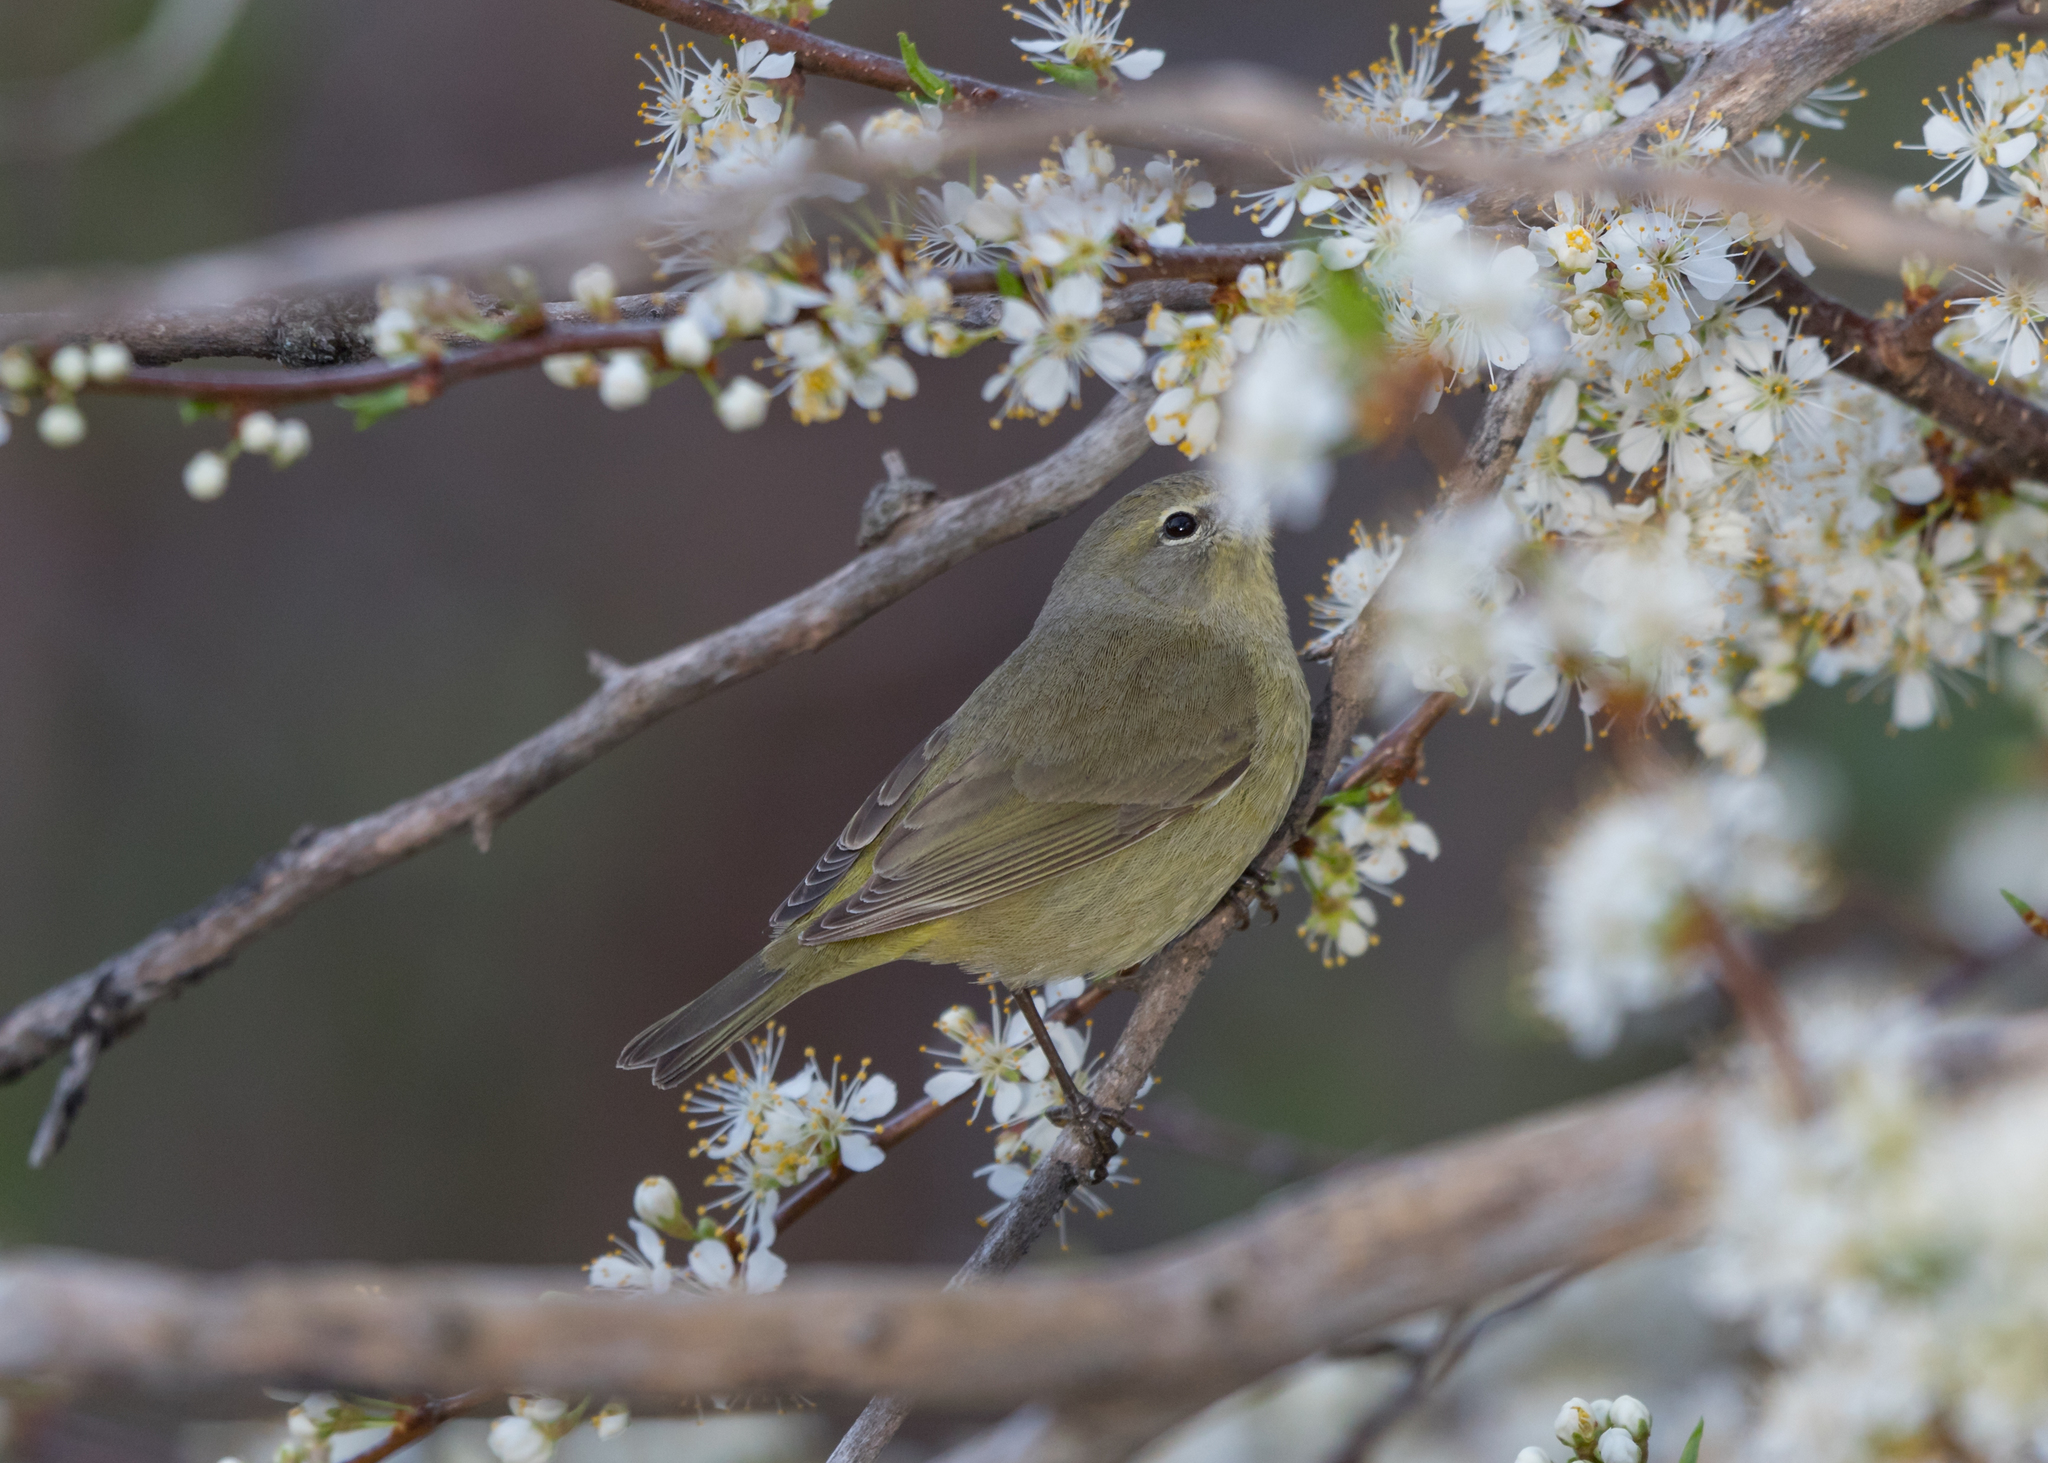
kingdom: Animalia
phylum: Chordata
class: Aves
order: Passeriformes
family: Parulidae
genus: Leiothlypis
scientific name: Leiothlypis celata
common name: Orange-crowned warbler
